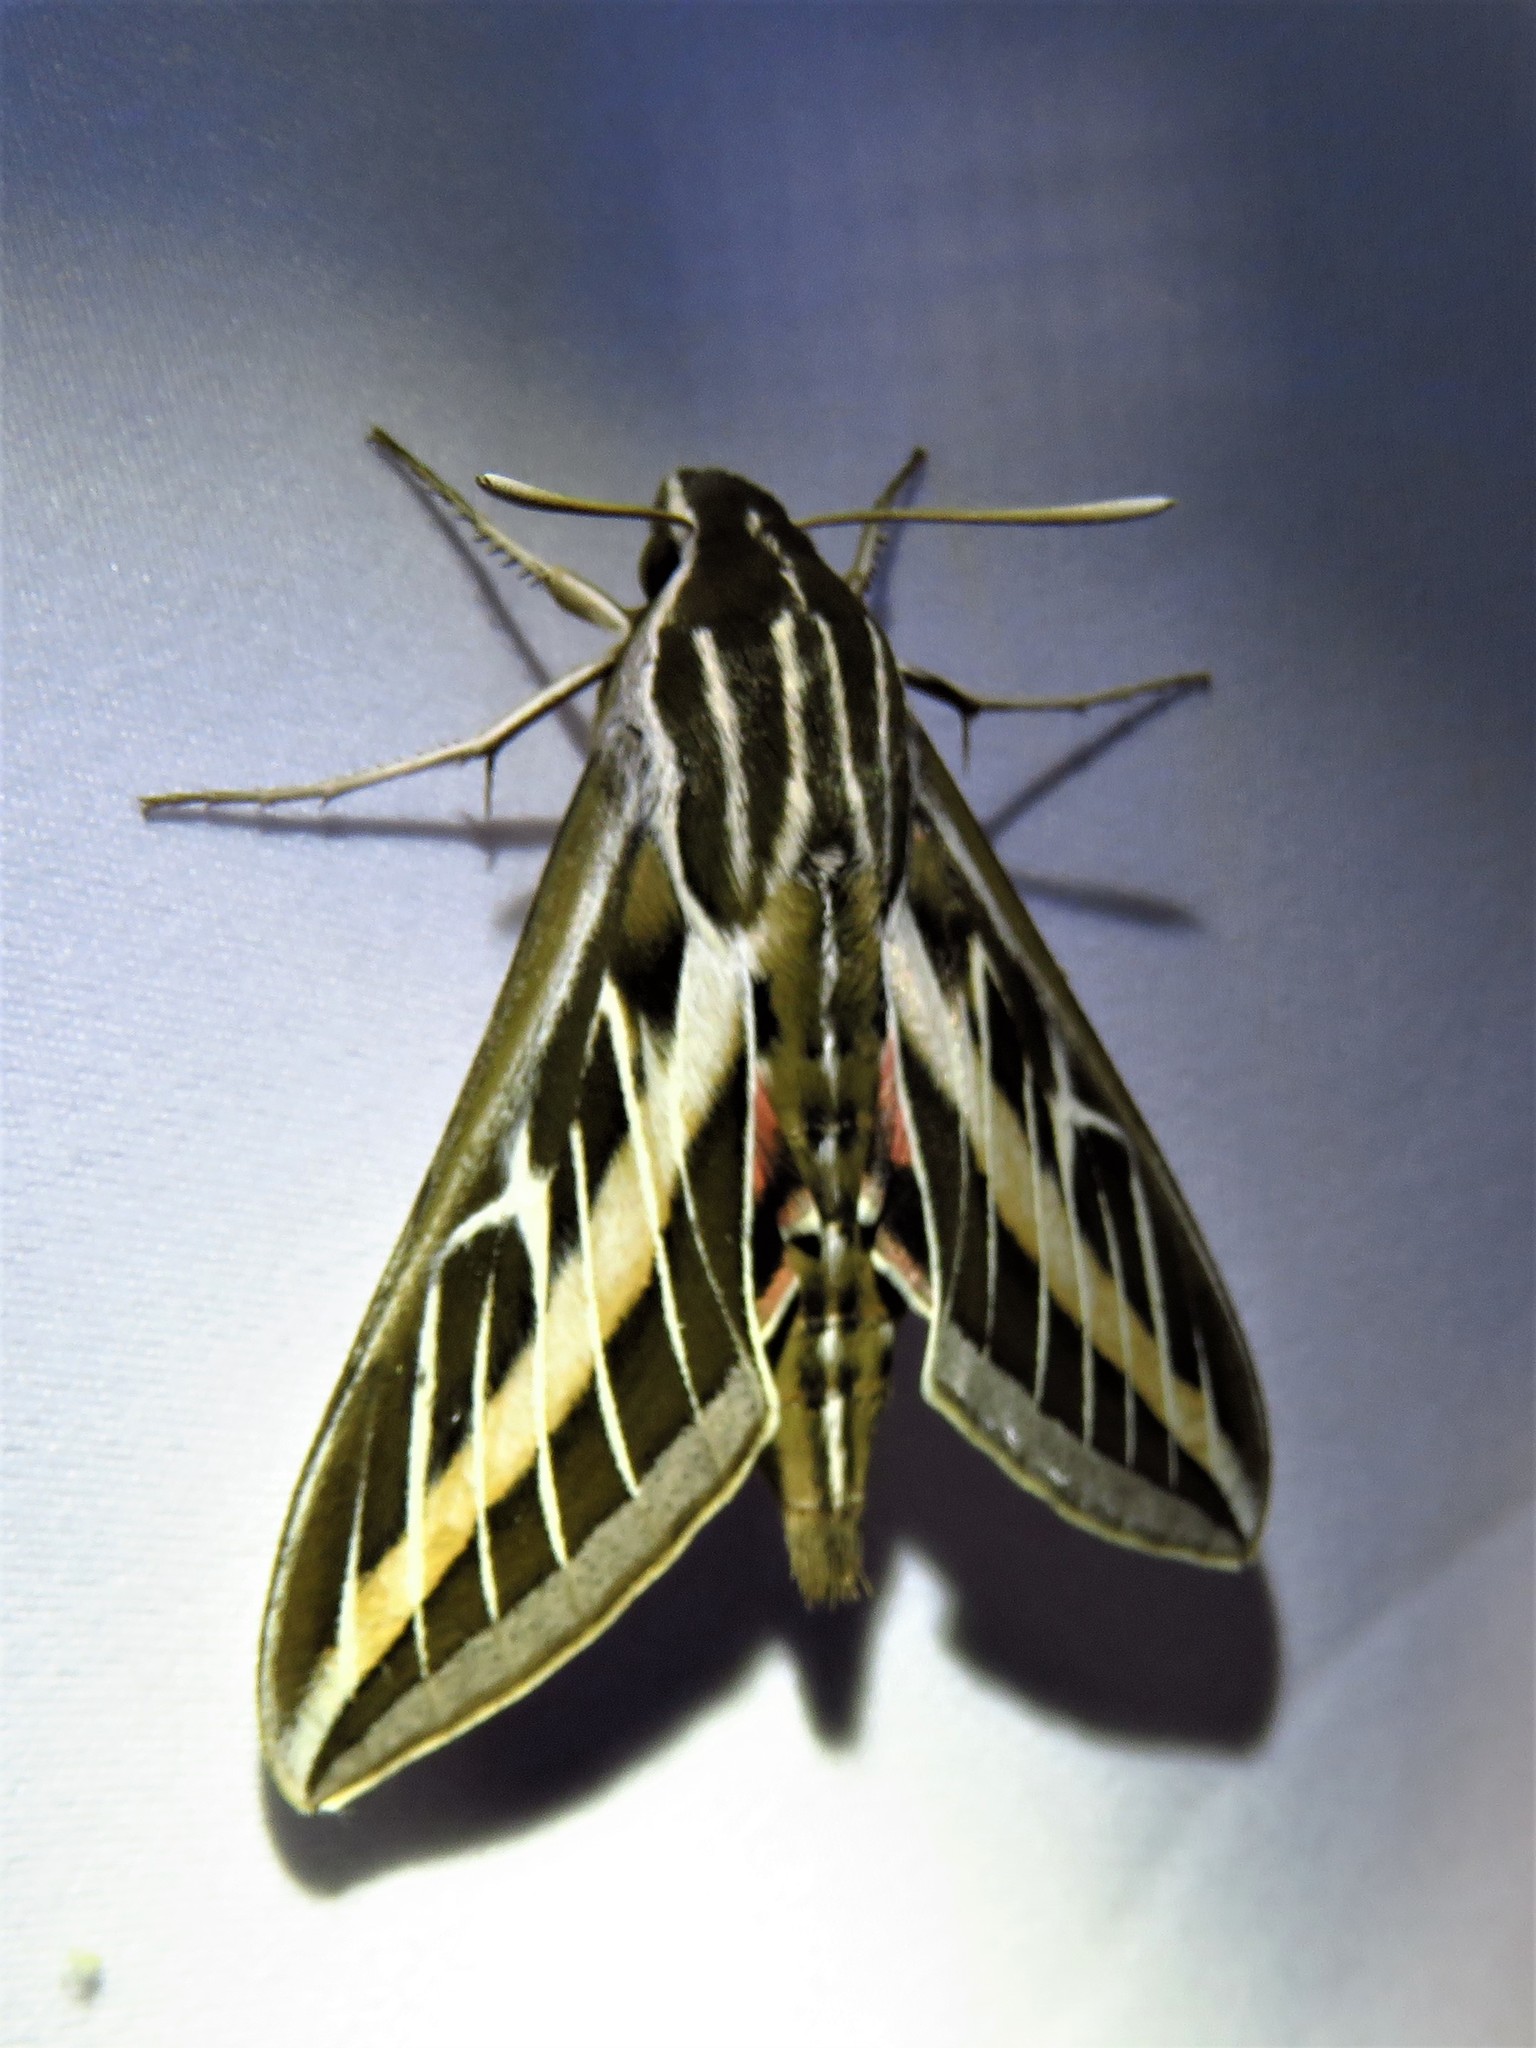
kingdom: Animalia
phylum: Arthropoda
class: Insecta
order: Lepidoptera
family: Sphingidae
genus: Hyles
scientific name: Hyles lineata
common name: White-lined sphinx
